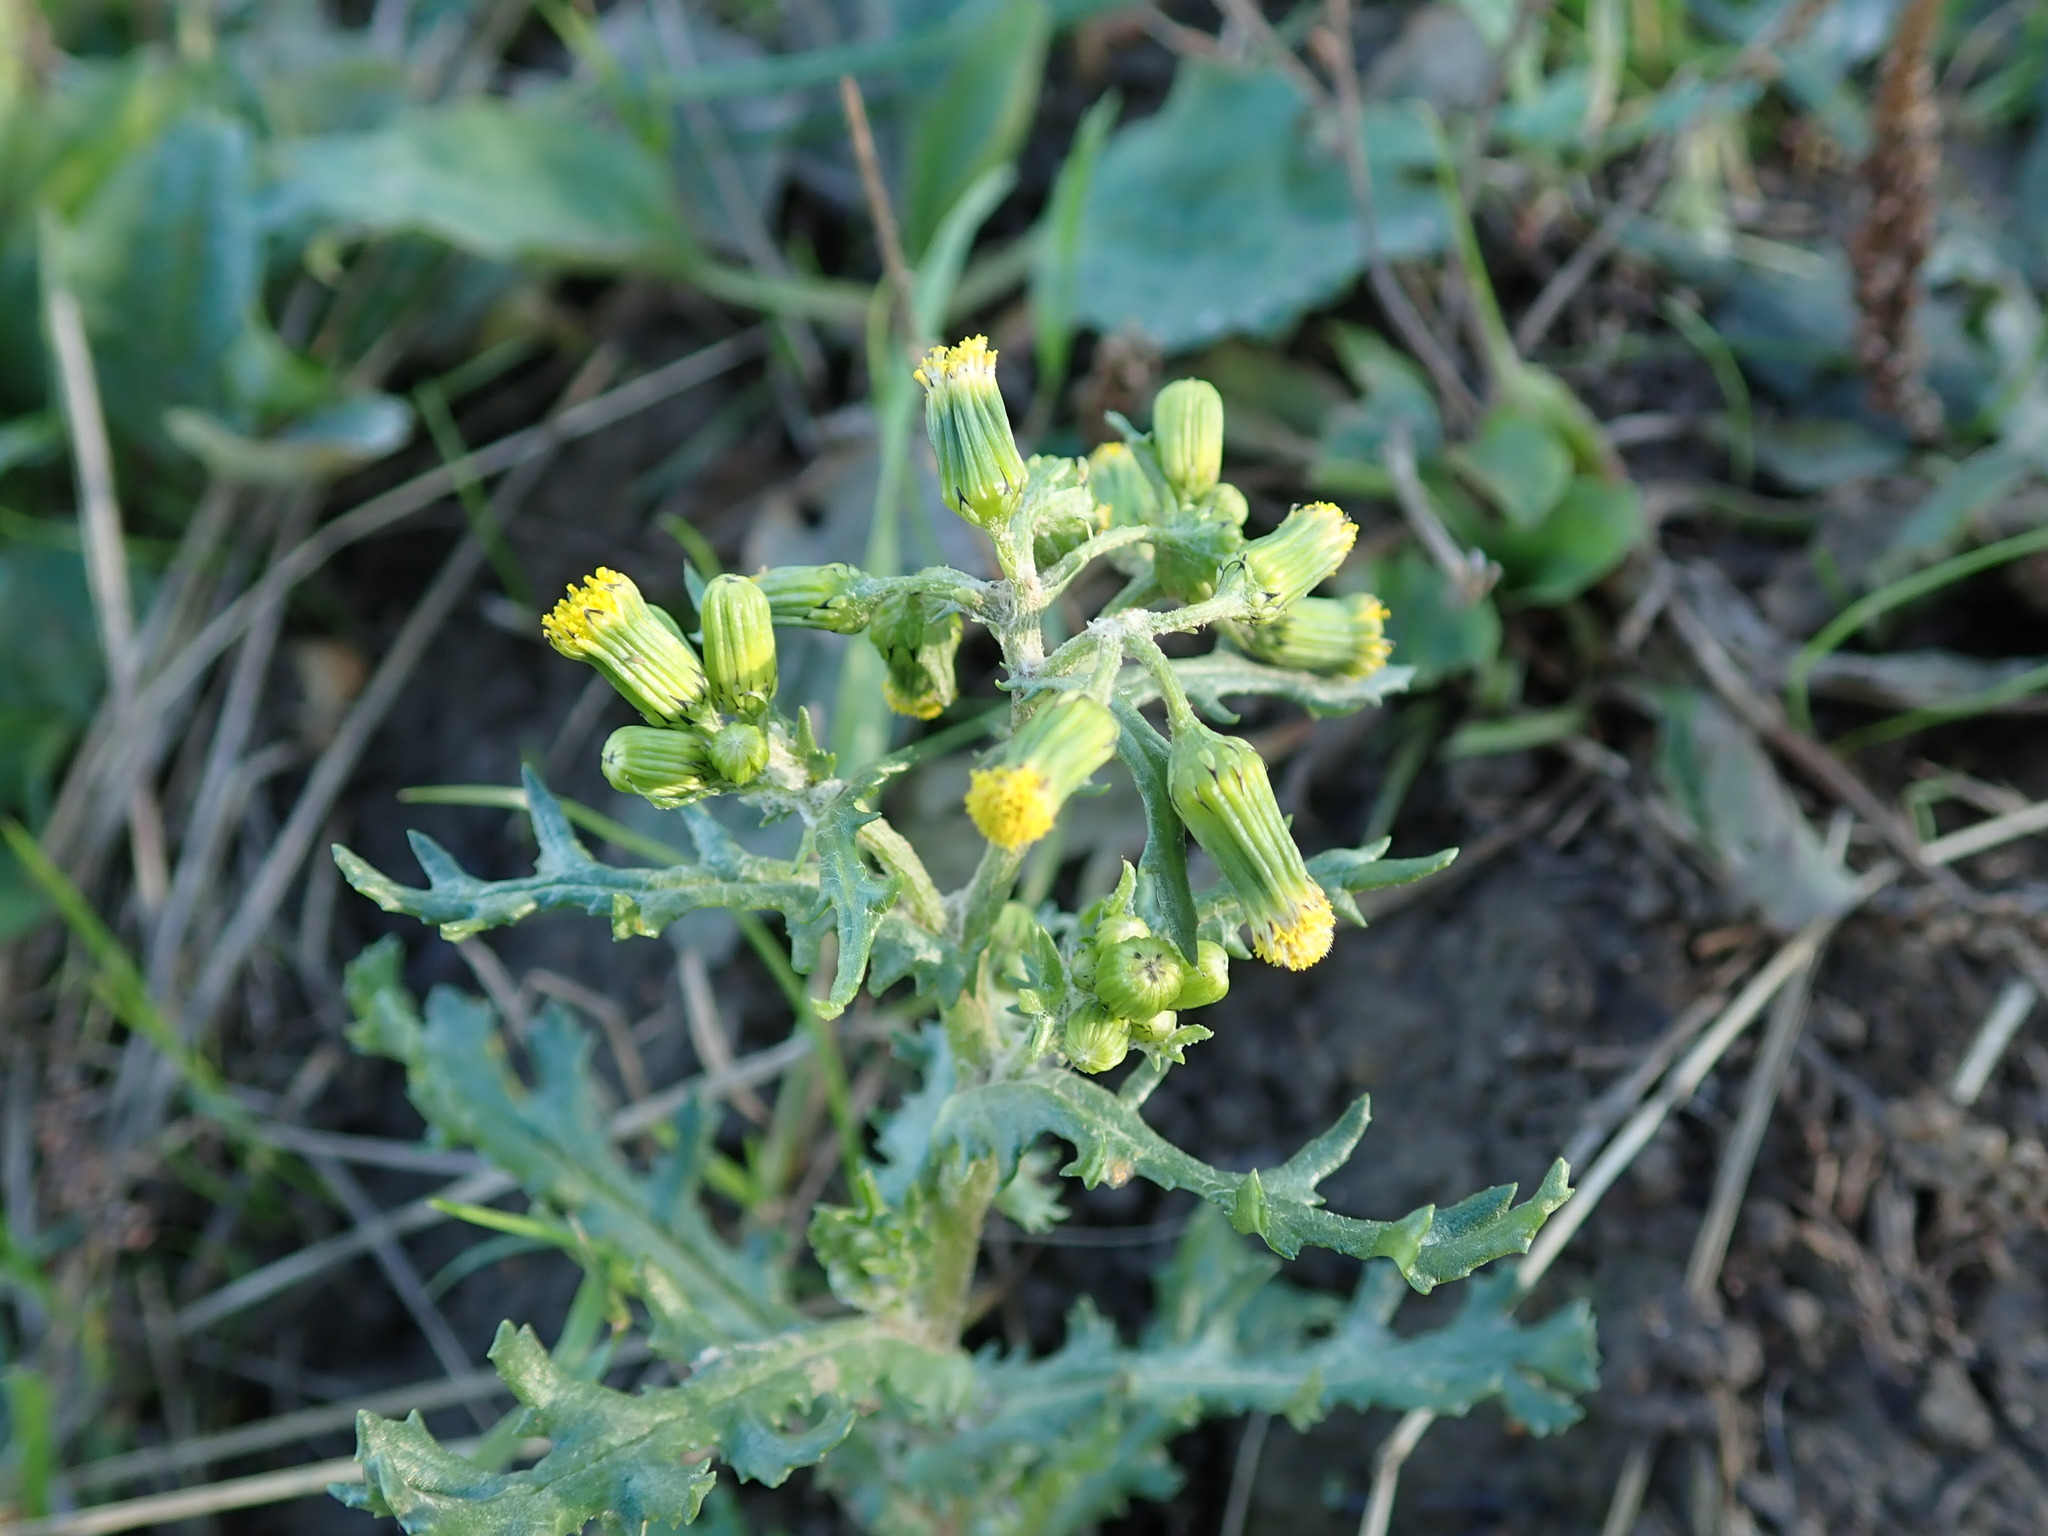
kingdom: Plantae
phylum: Tracheophyta
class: Magnoliopsida
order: Asterales
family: Asteraceae
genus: Senecio
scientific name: Senecio vulgaris
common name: Old-man-in-the-spring
